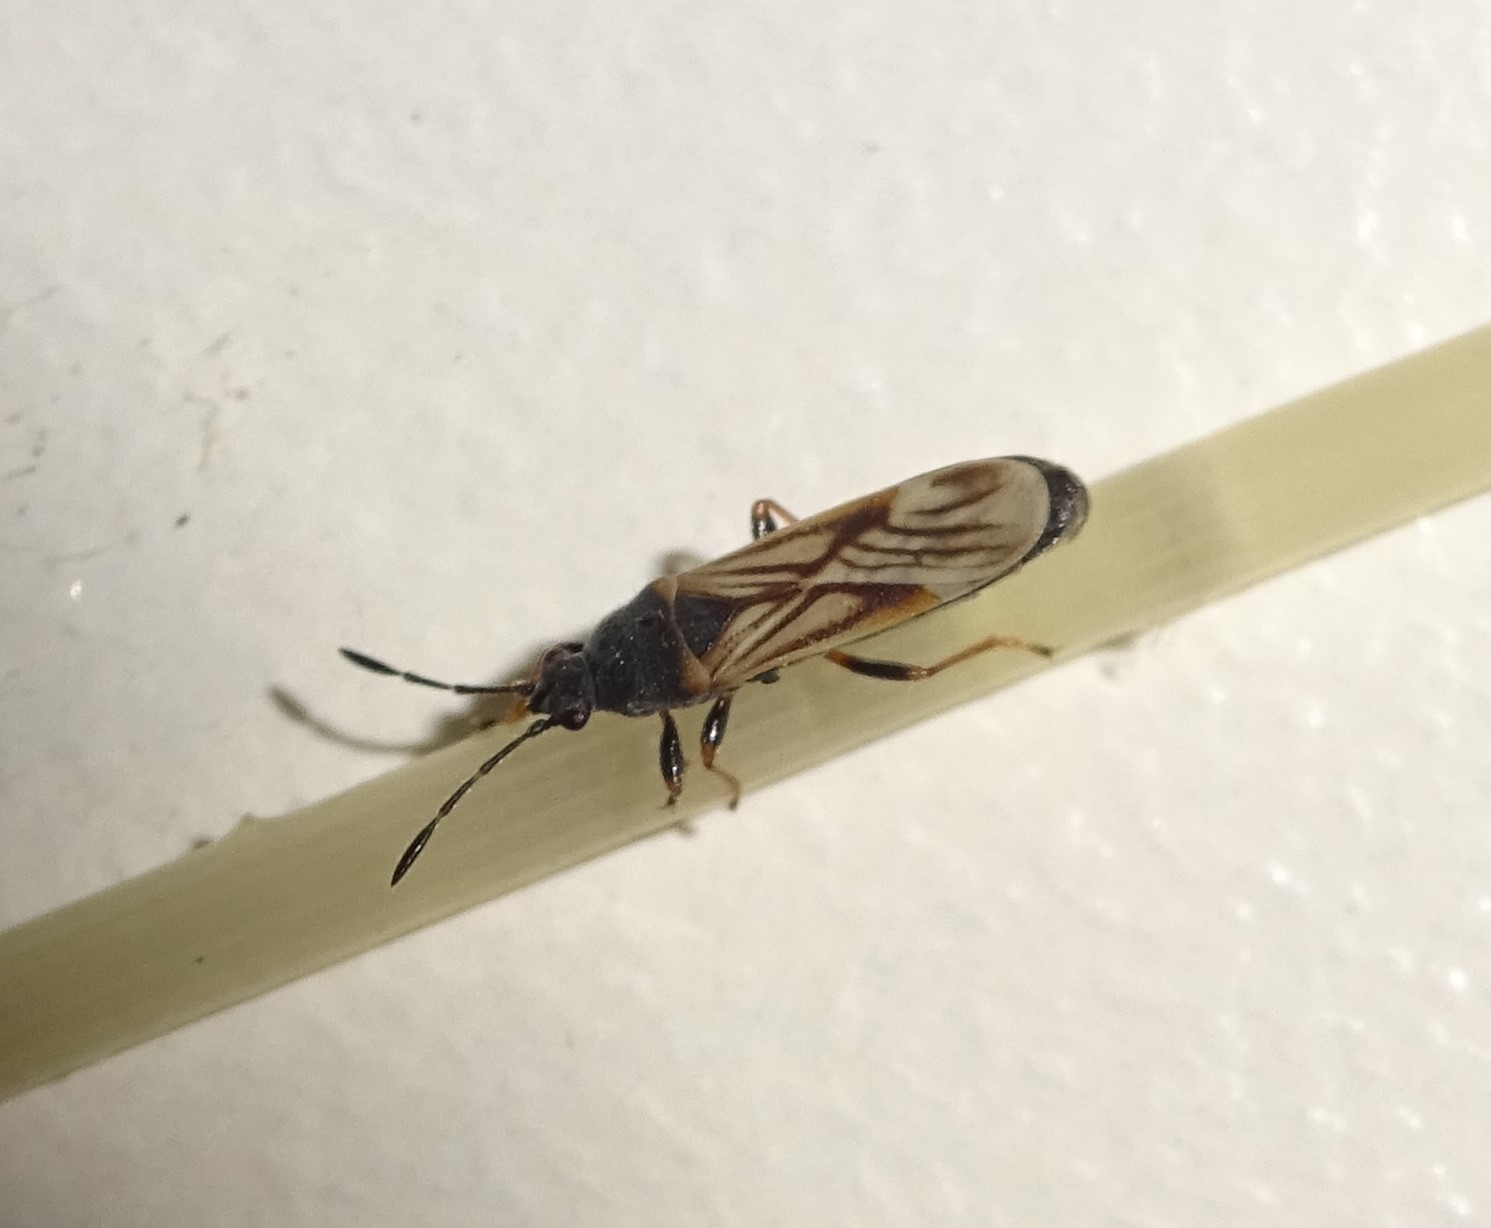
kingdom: Animalia
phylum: Arthropoda
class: Insecta
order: Hemiptera
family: Blissidae
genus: Ischnodemus
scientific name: Ischnodemus sabuleti
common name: European cinchbug
